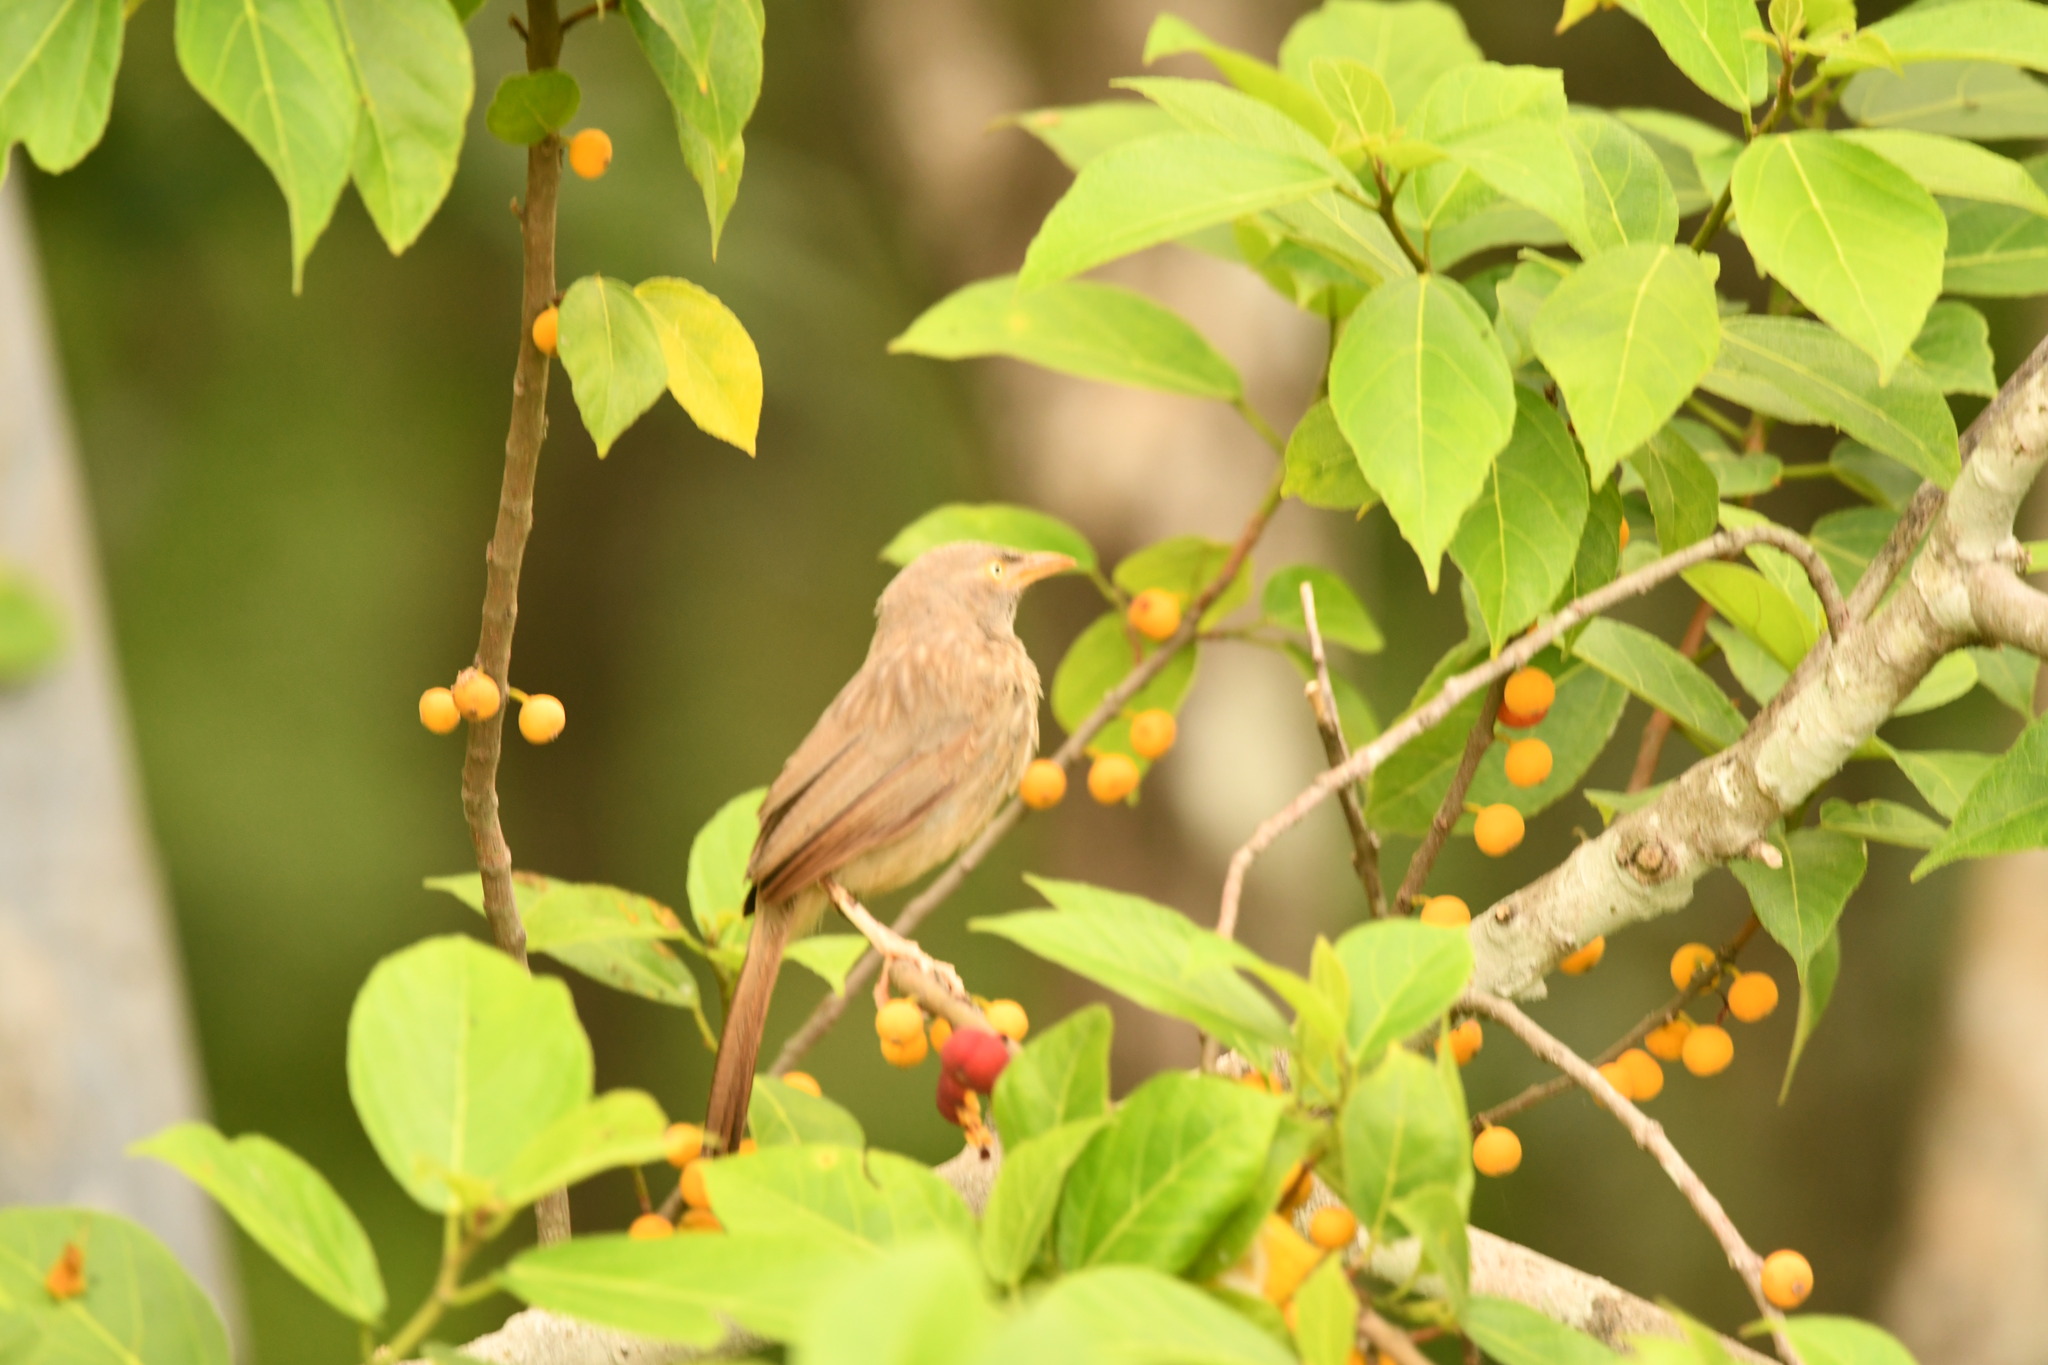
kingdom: Animalia
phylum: Chordata
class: Aves
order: Passeriformes
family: Leiothrichidae
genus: Turdoides
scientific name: Turdoides striata
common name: Jungle babbler
